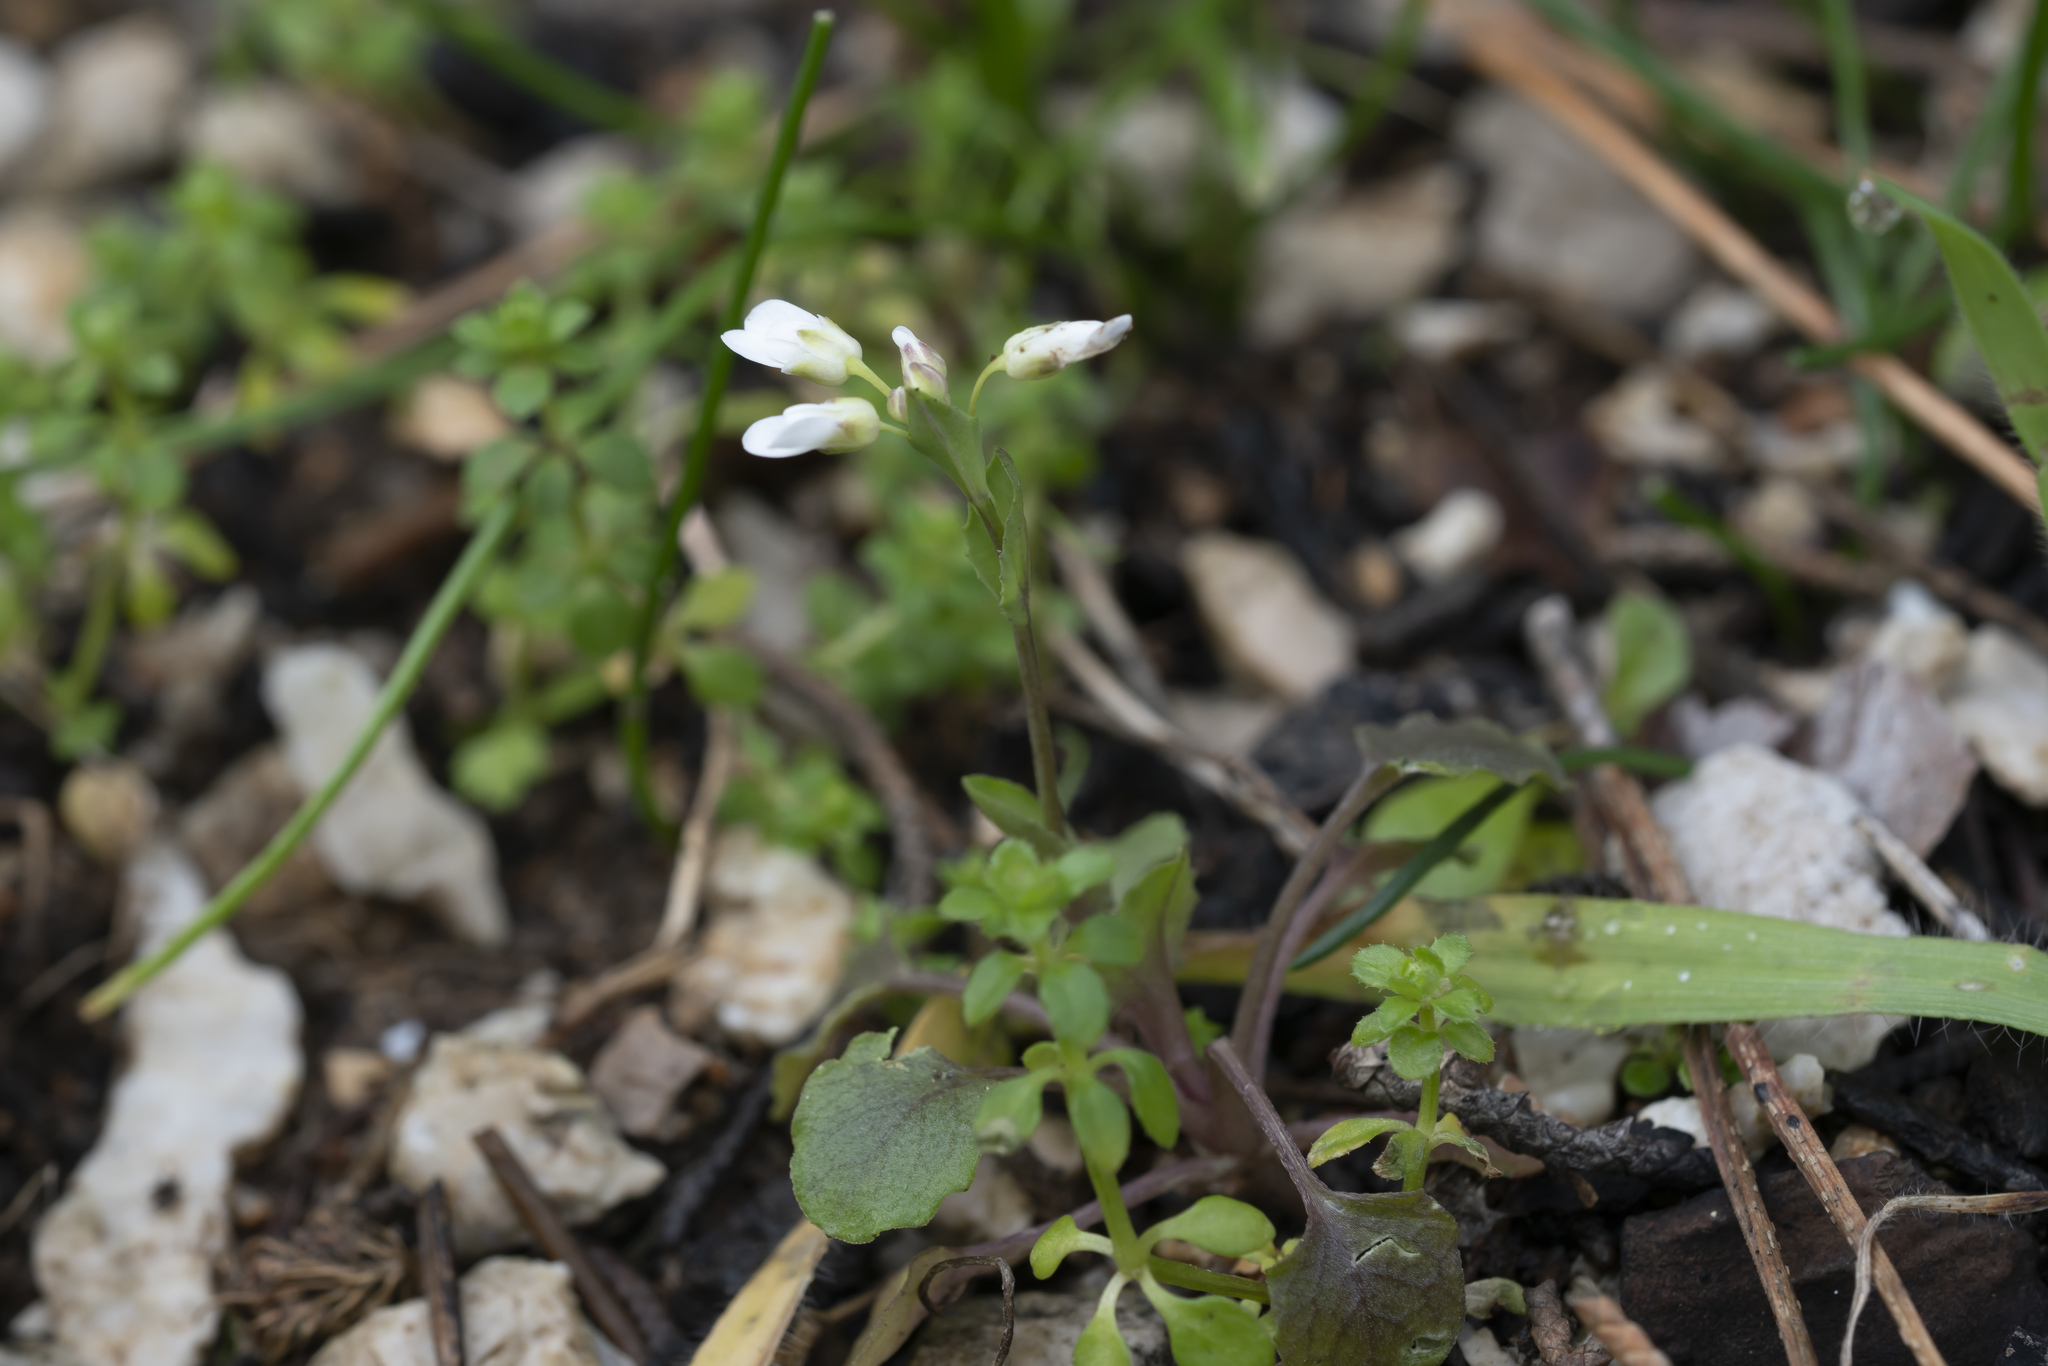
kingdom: Plantae
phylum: Tracheophyta
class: Magnoliopsida
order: Brassicales
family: Brassicaceae
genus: Noccaea
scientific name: Noccaea natolica
